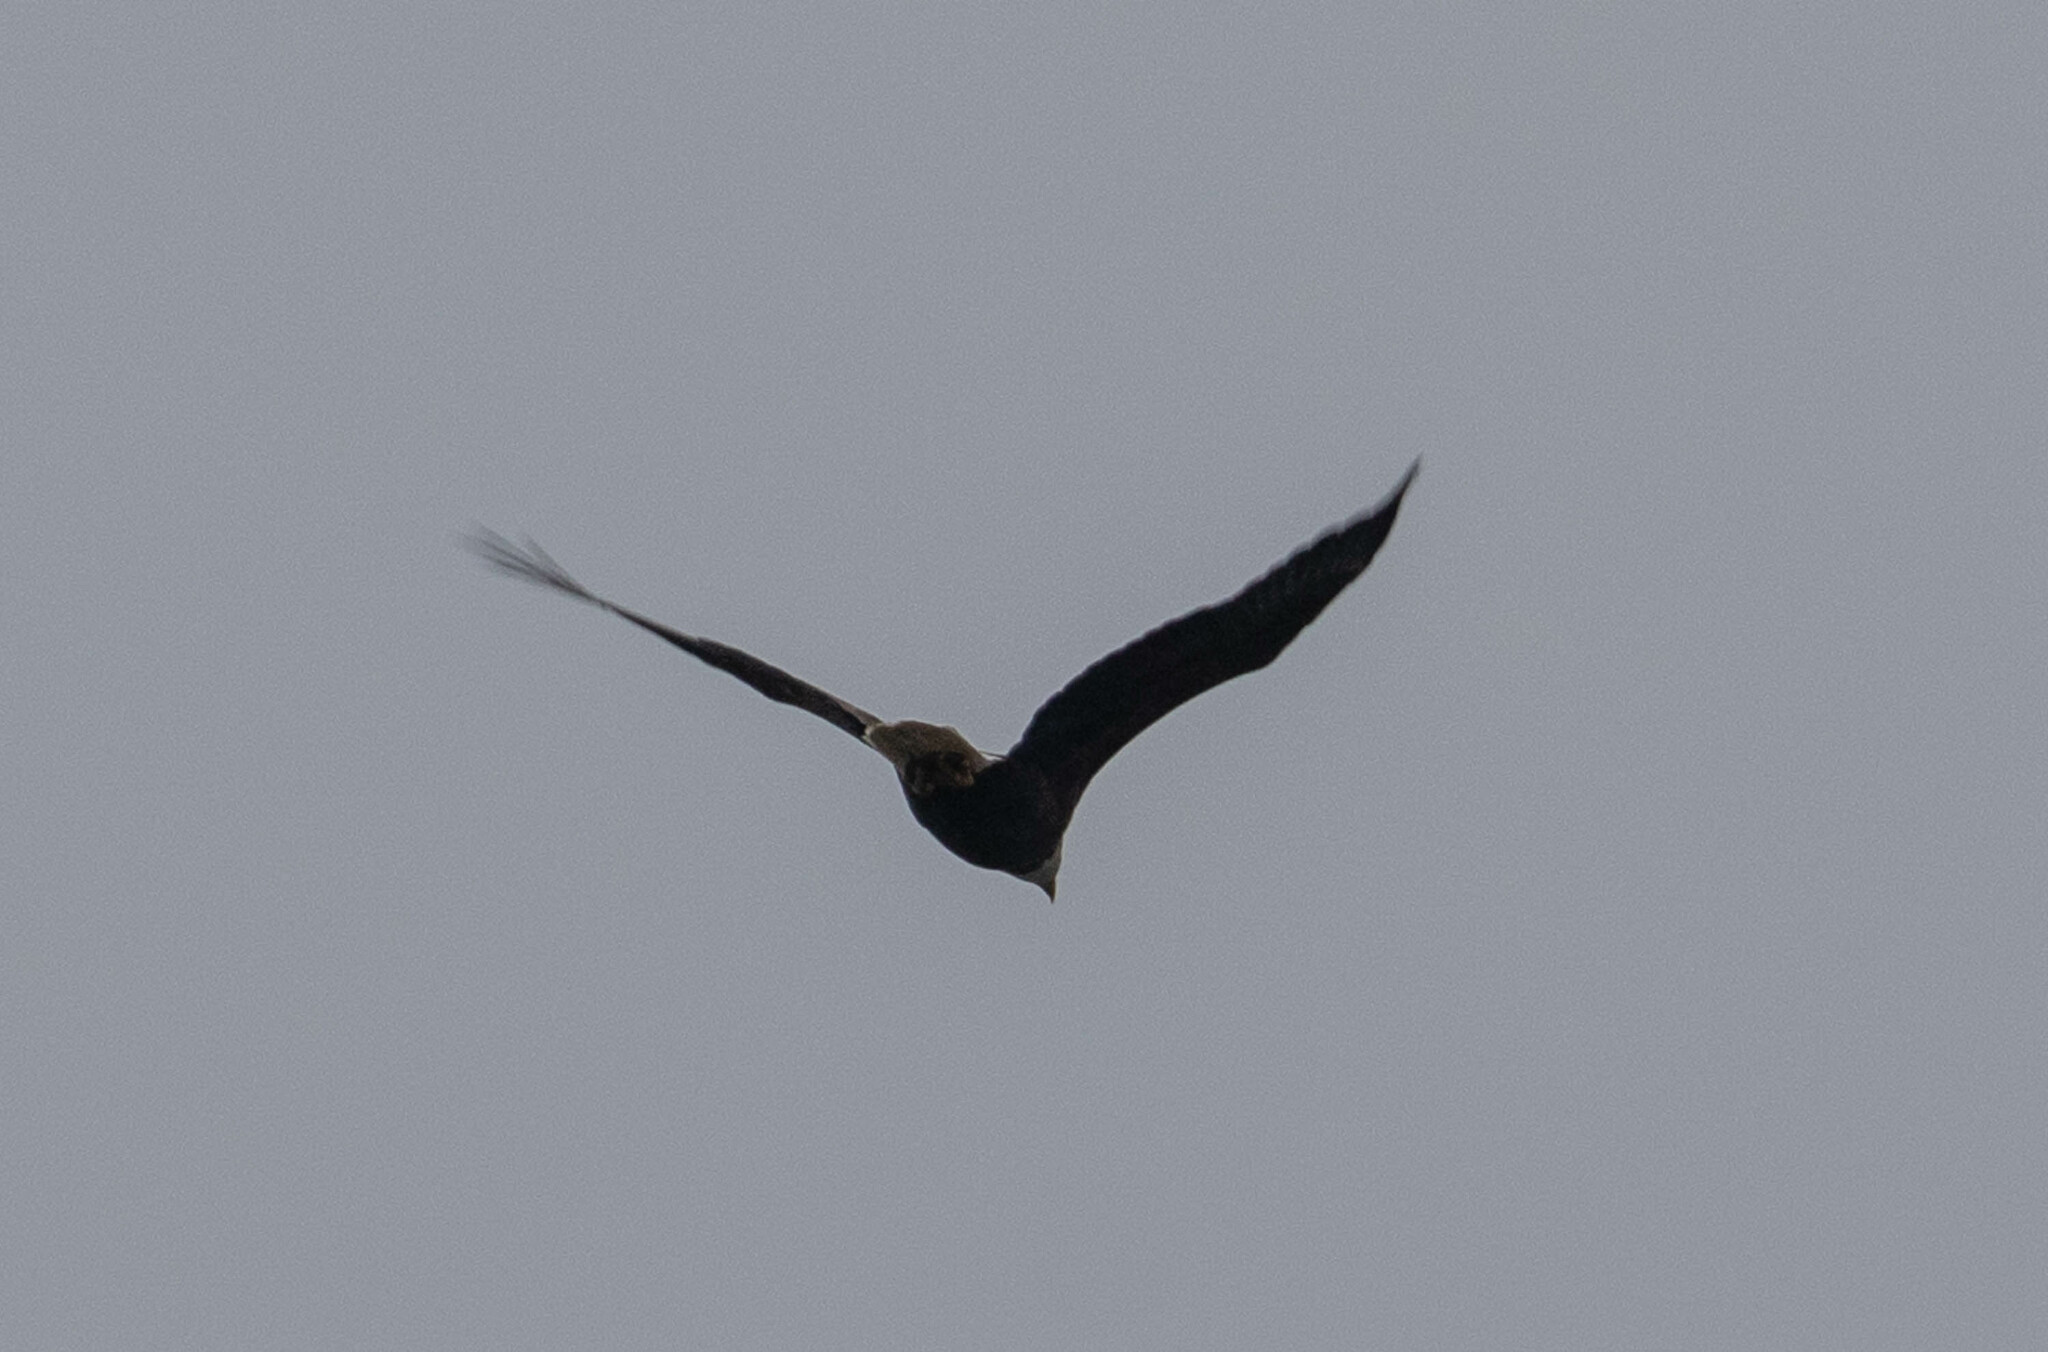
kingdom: Animalia
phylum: Chordata
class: Aves
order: Accipitriformes
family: Accipitridae
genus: Haliaeetus
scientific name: Haliaeetus leucocephalus
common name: Bald eagle
